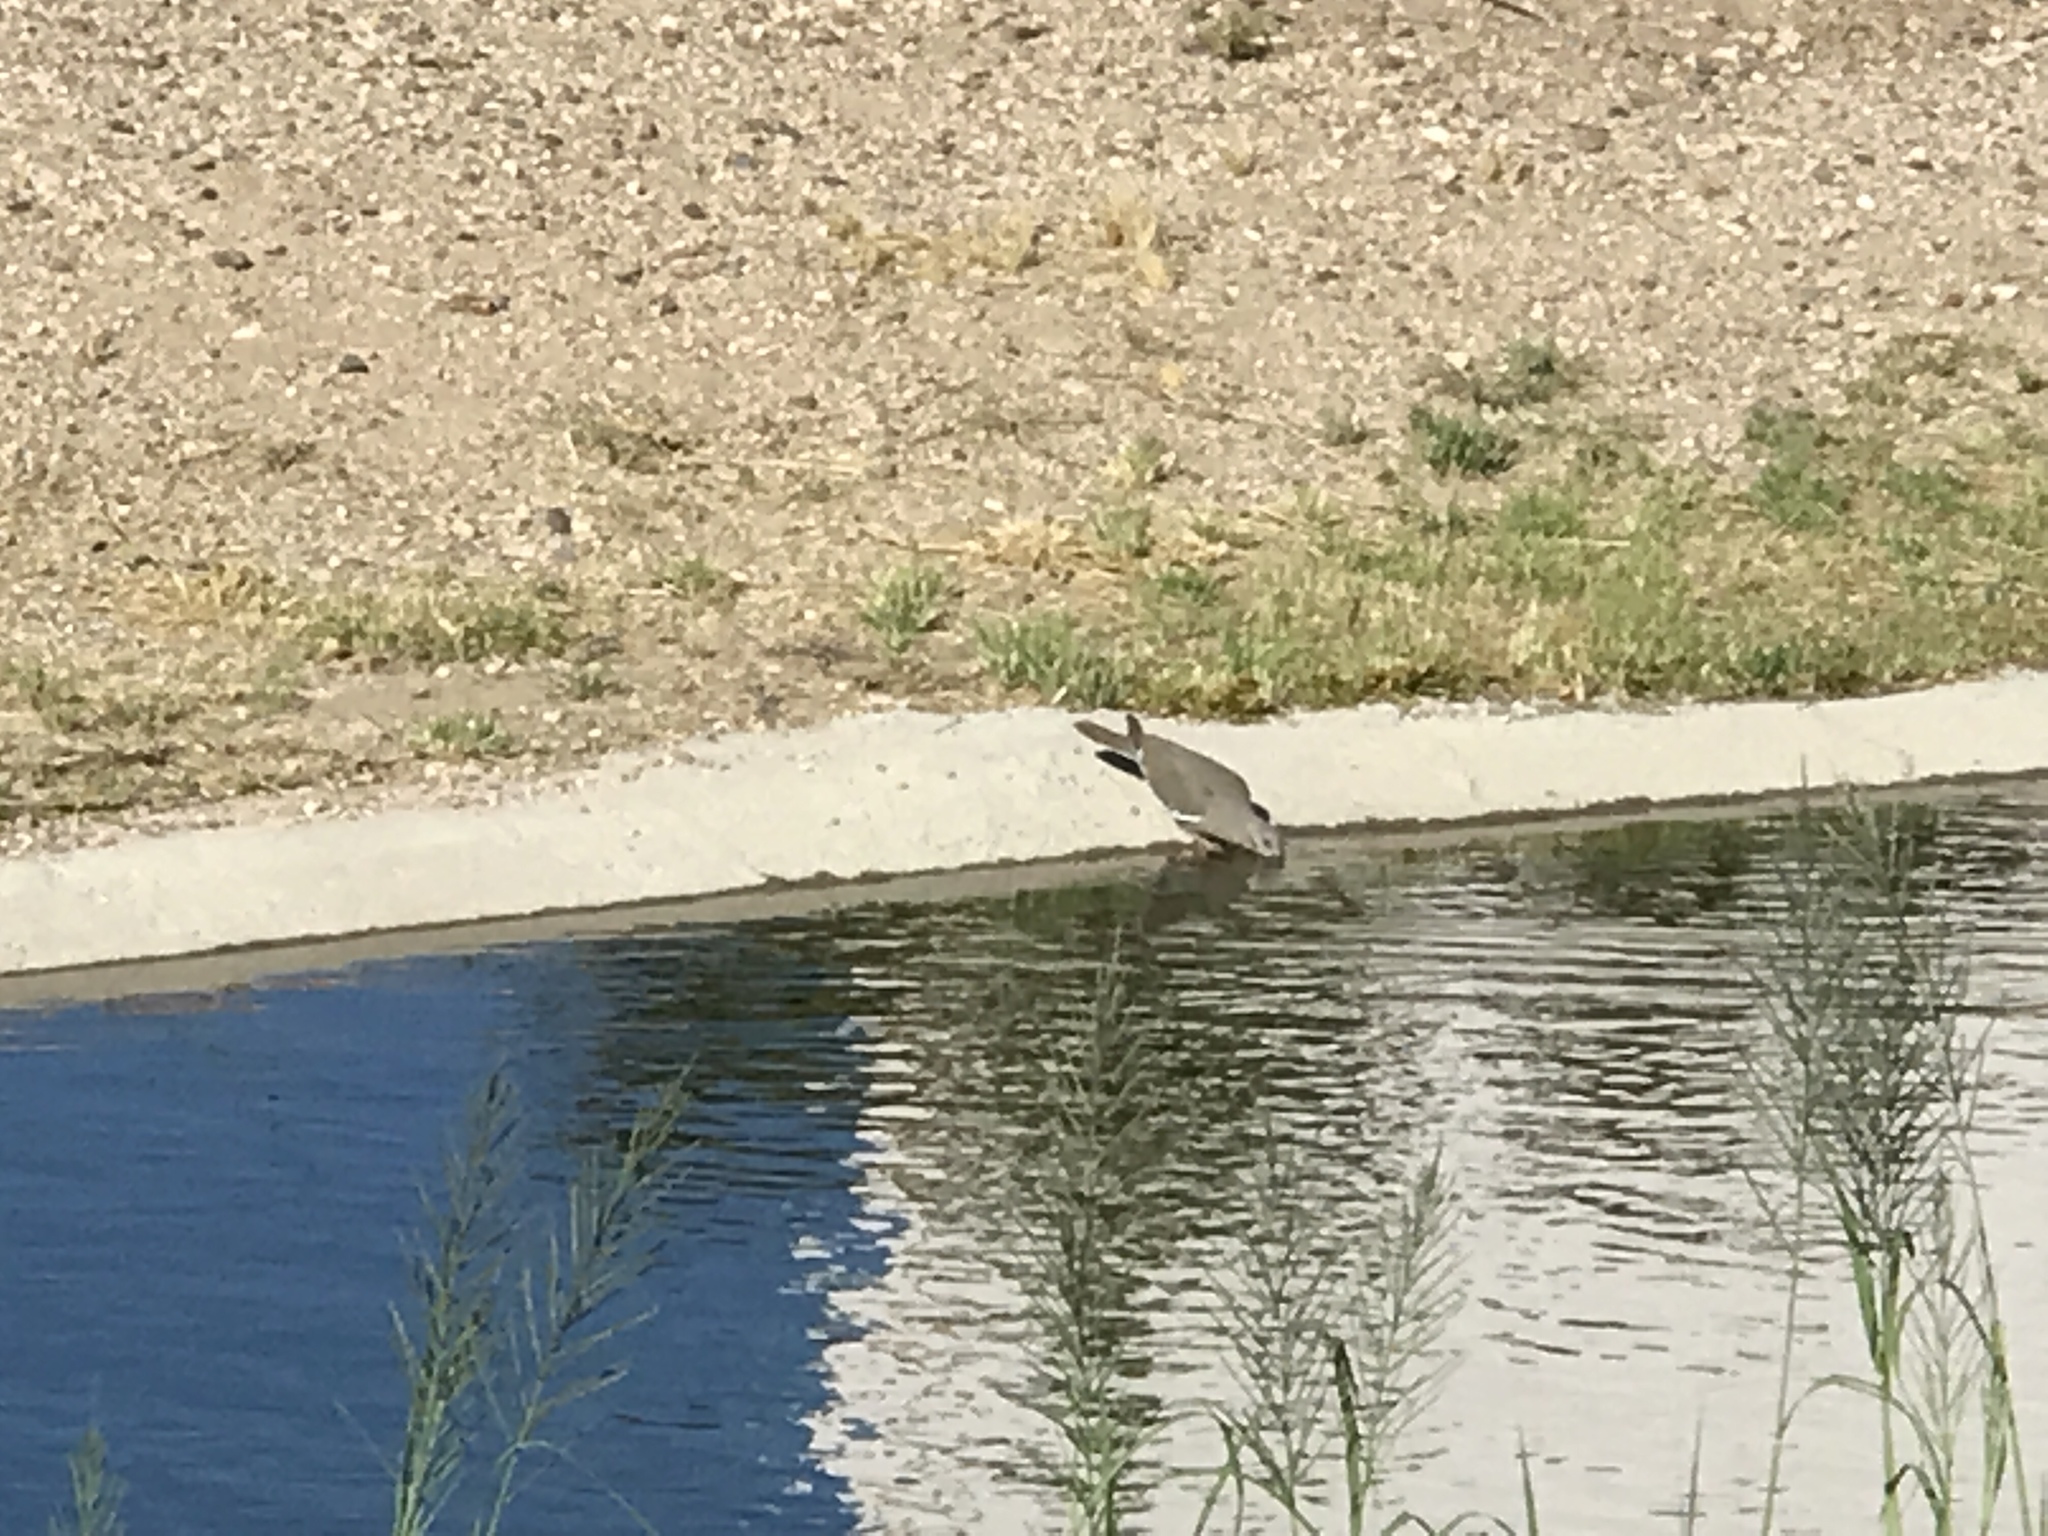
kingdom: Animalia
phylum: Chordata
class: Aves
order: Columbiformes
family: Columbidae
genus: Zenaida
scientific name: Zenaida asiatica
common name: White-winged dove
